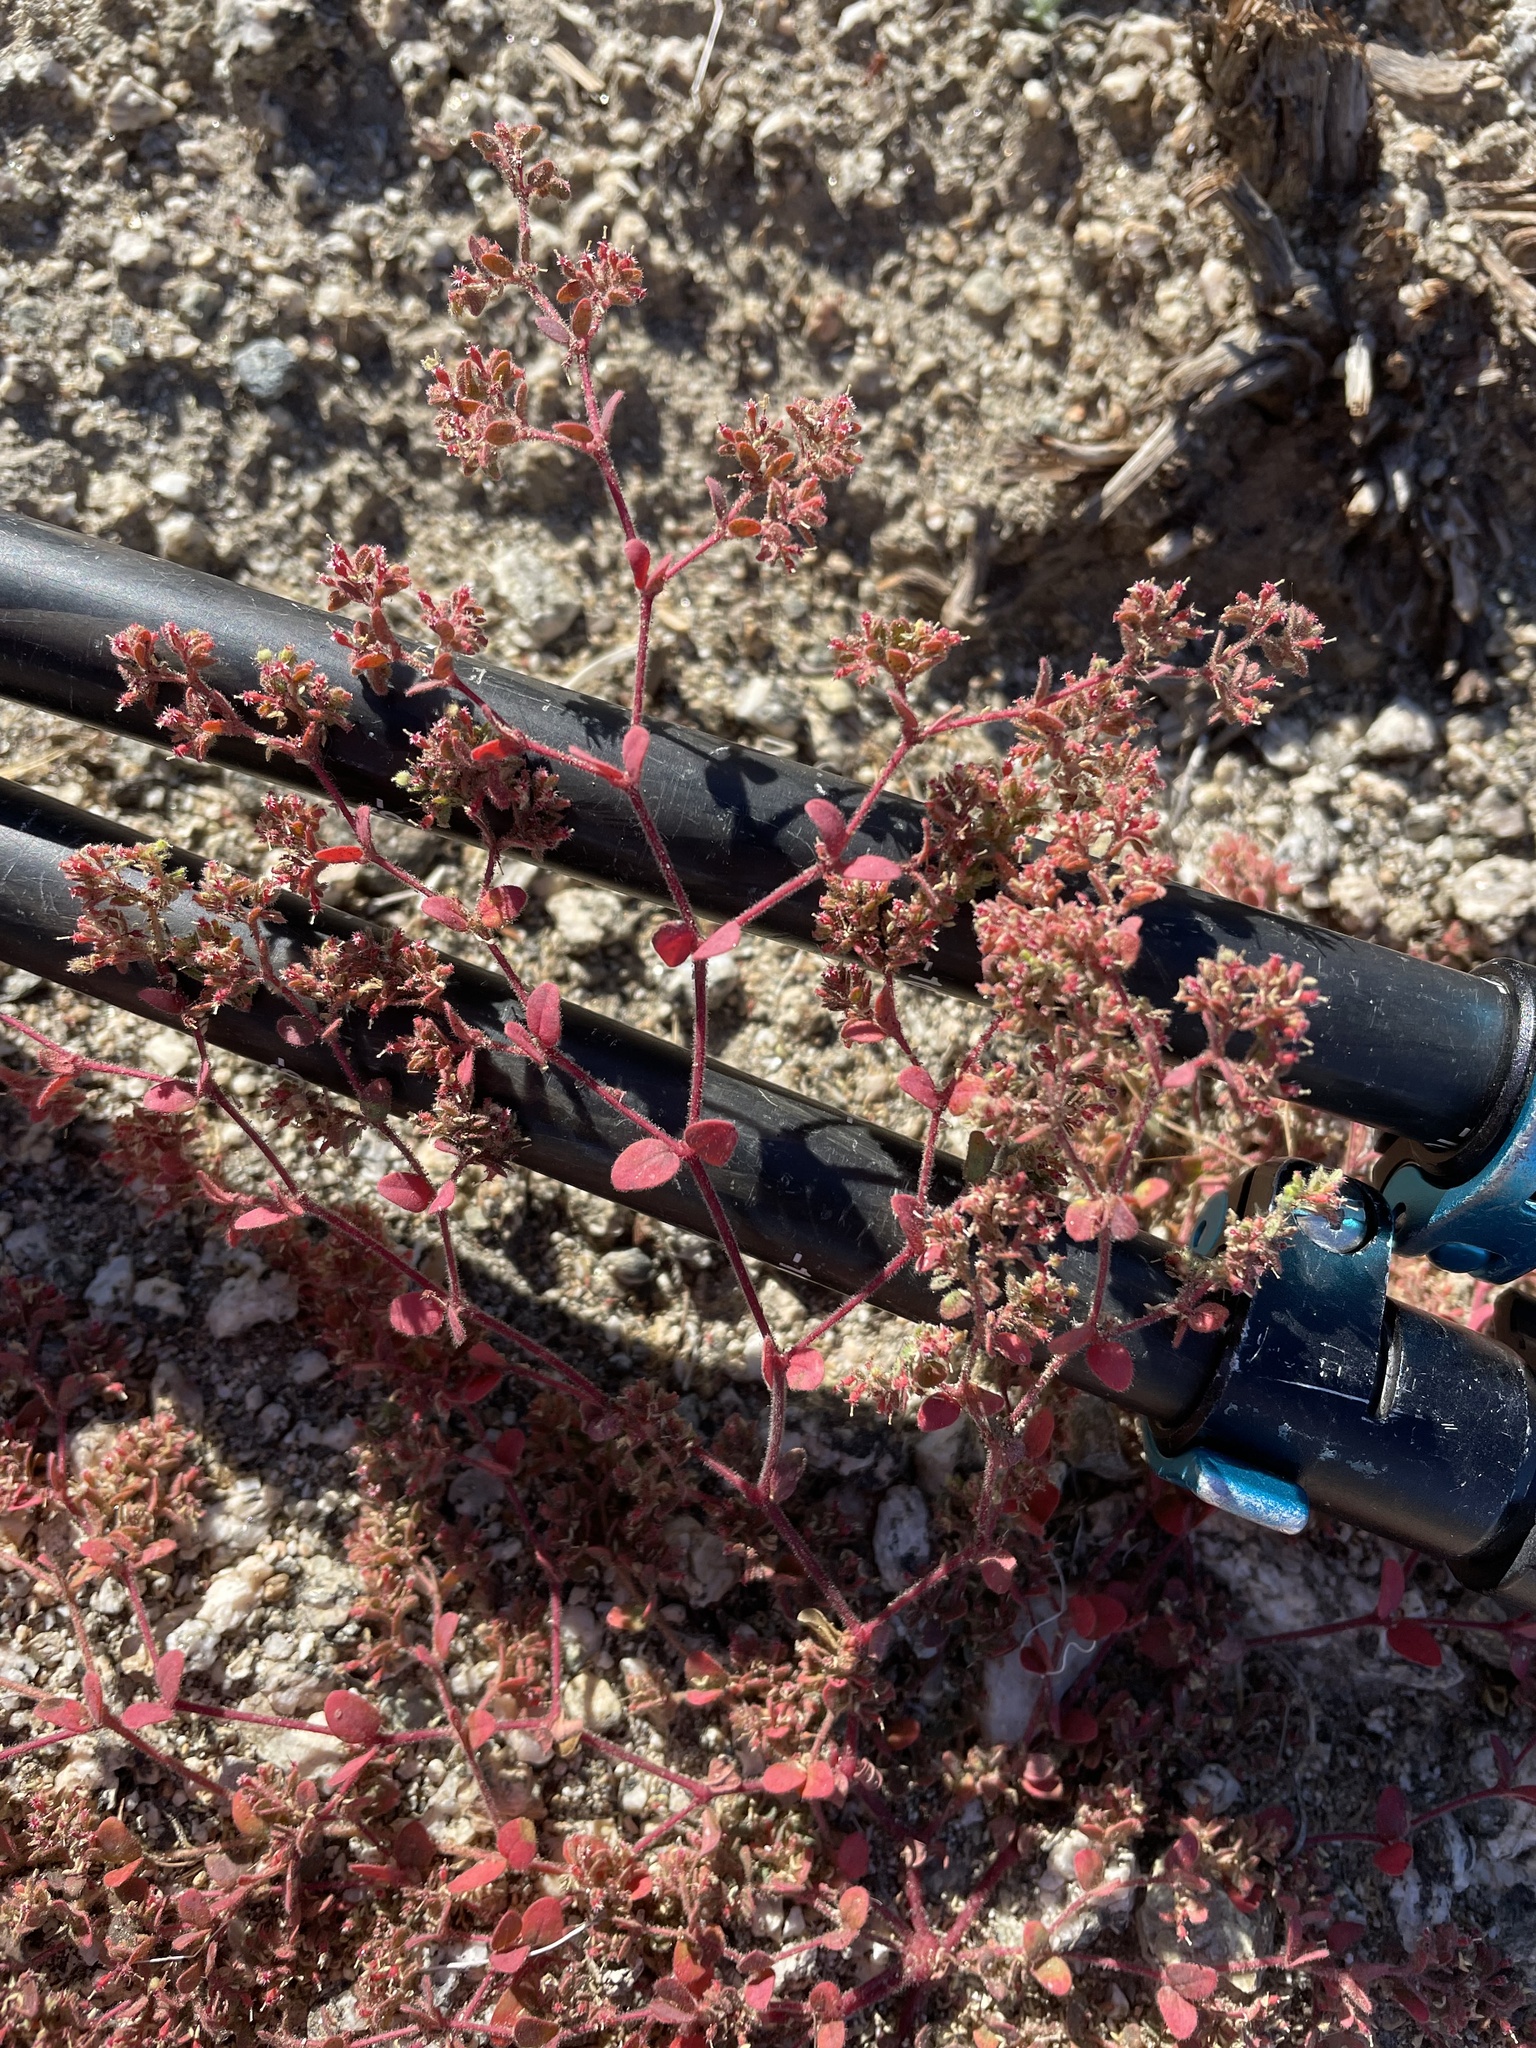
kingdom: Plantae
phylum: Tracheophyta
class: Magnoliopsida
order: Malpighiales
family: Euphorbiaceae
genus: Euphorbia
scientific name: Euphorbia setiloba
